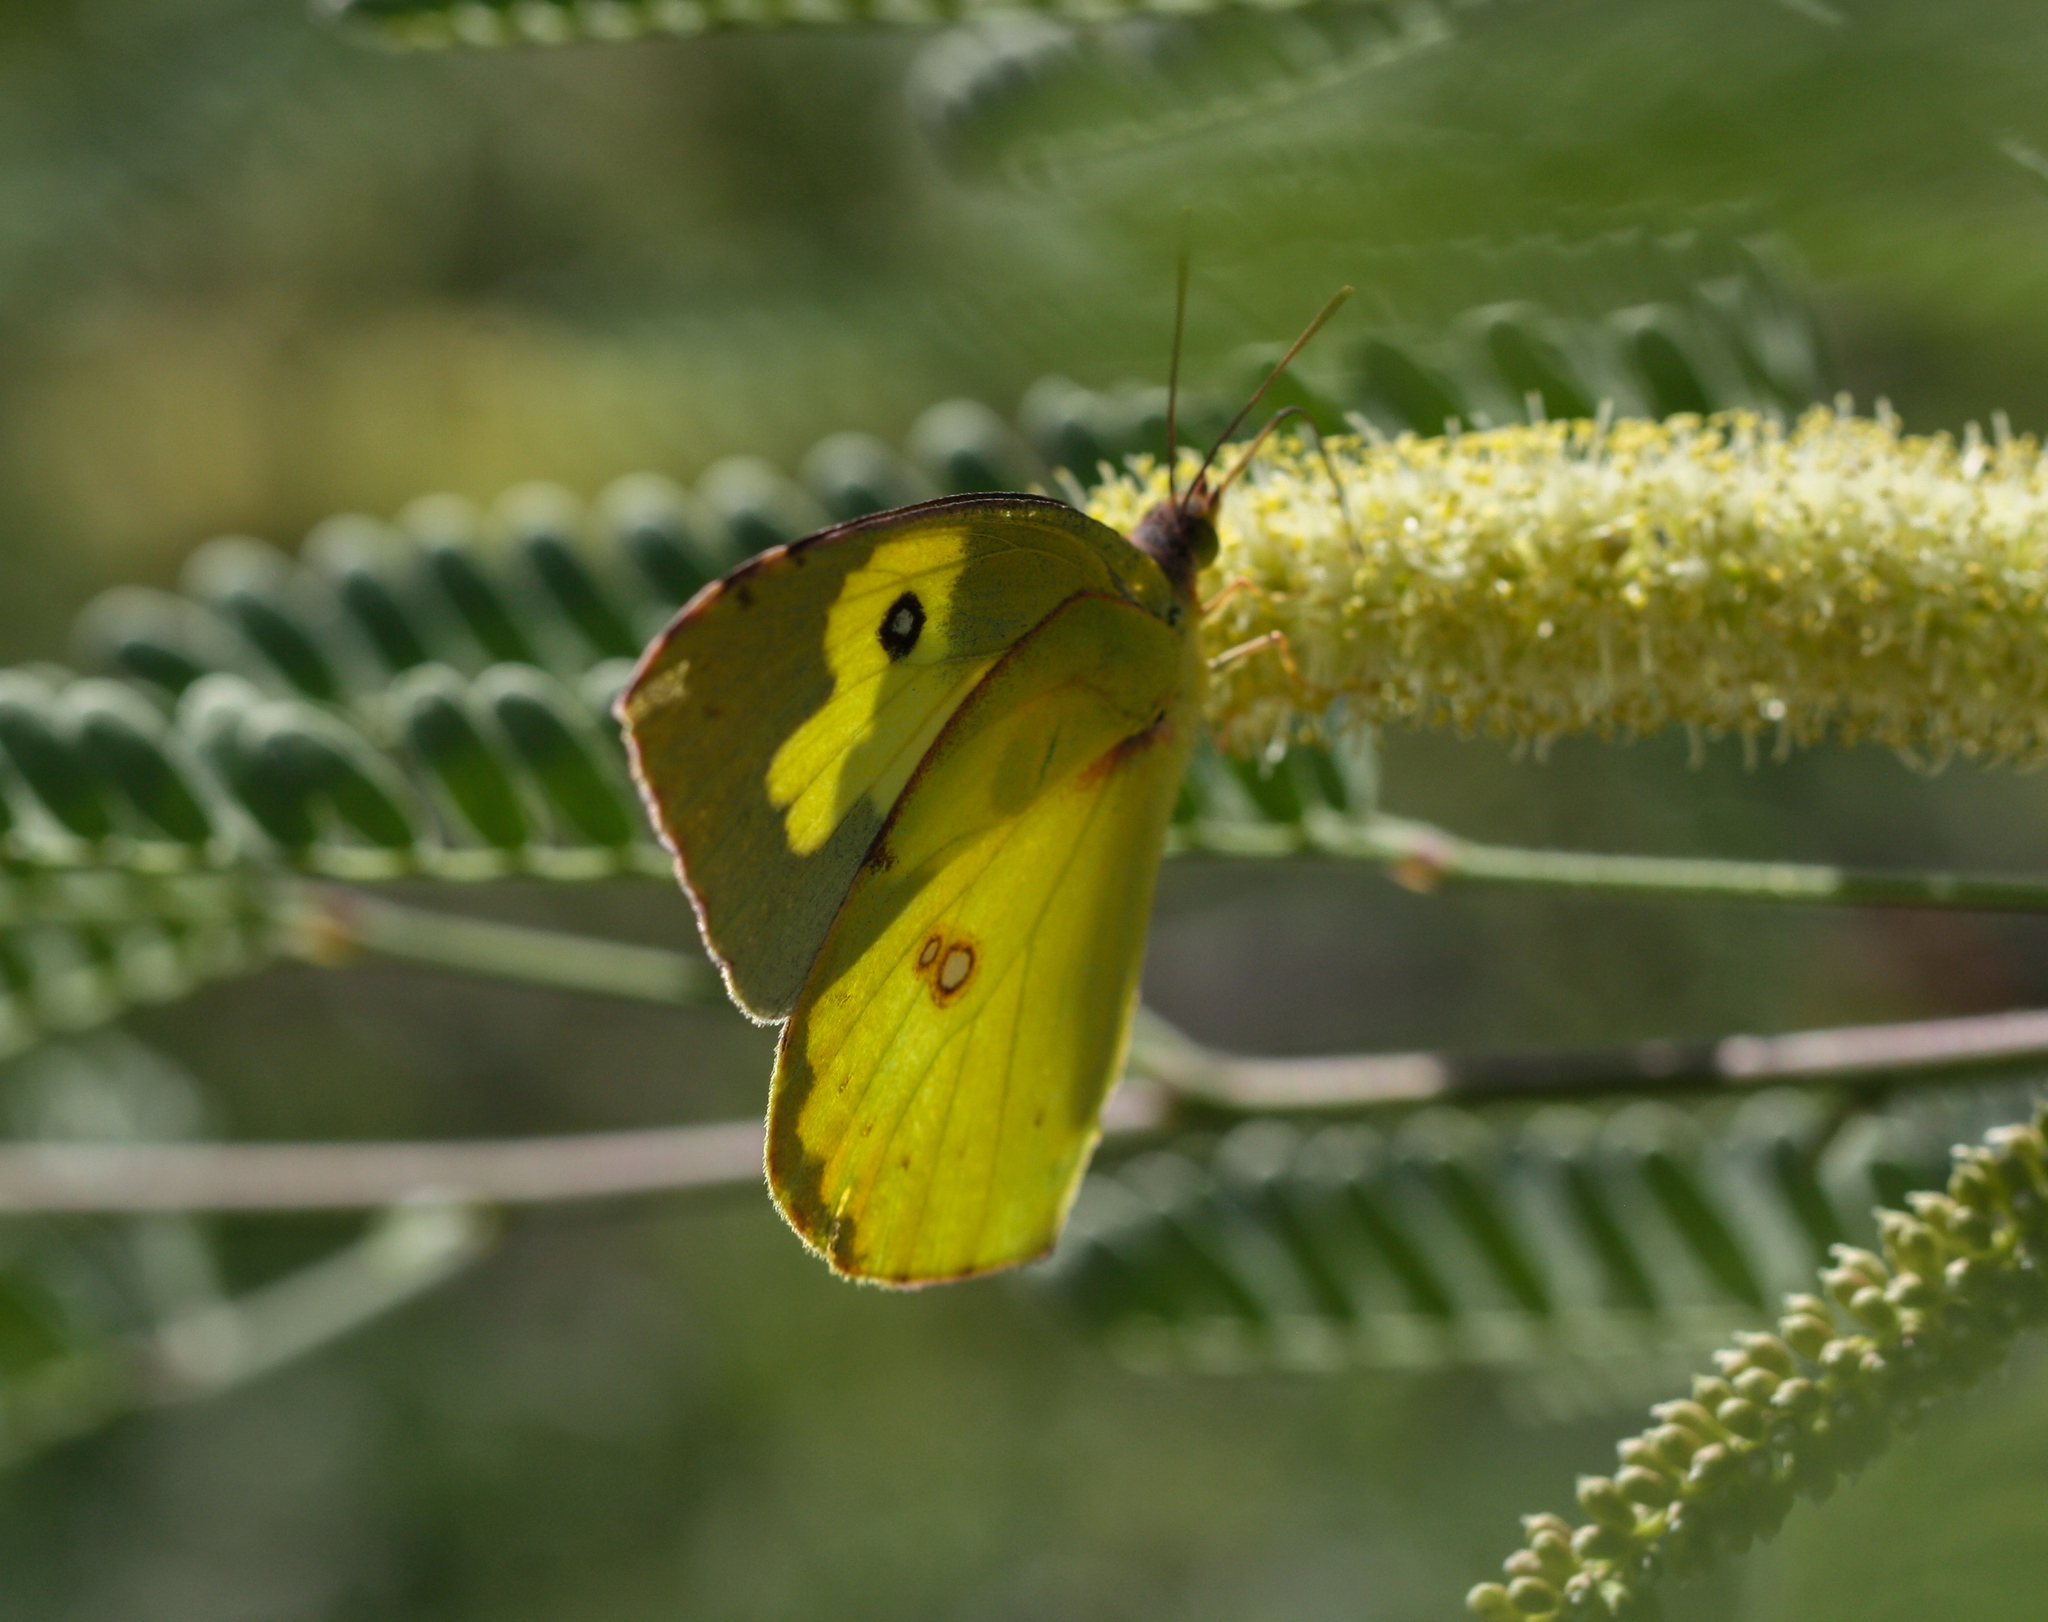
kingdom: Animalia
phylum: Arthropoda
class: Insecta
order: Lepidoptera
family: Pieridae
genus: Zerene
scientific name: Zerene cesonia
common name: Southern dogface
